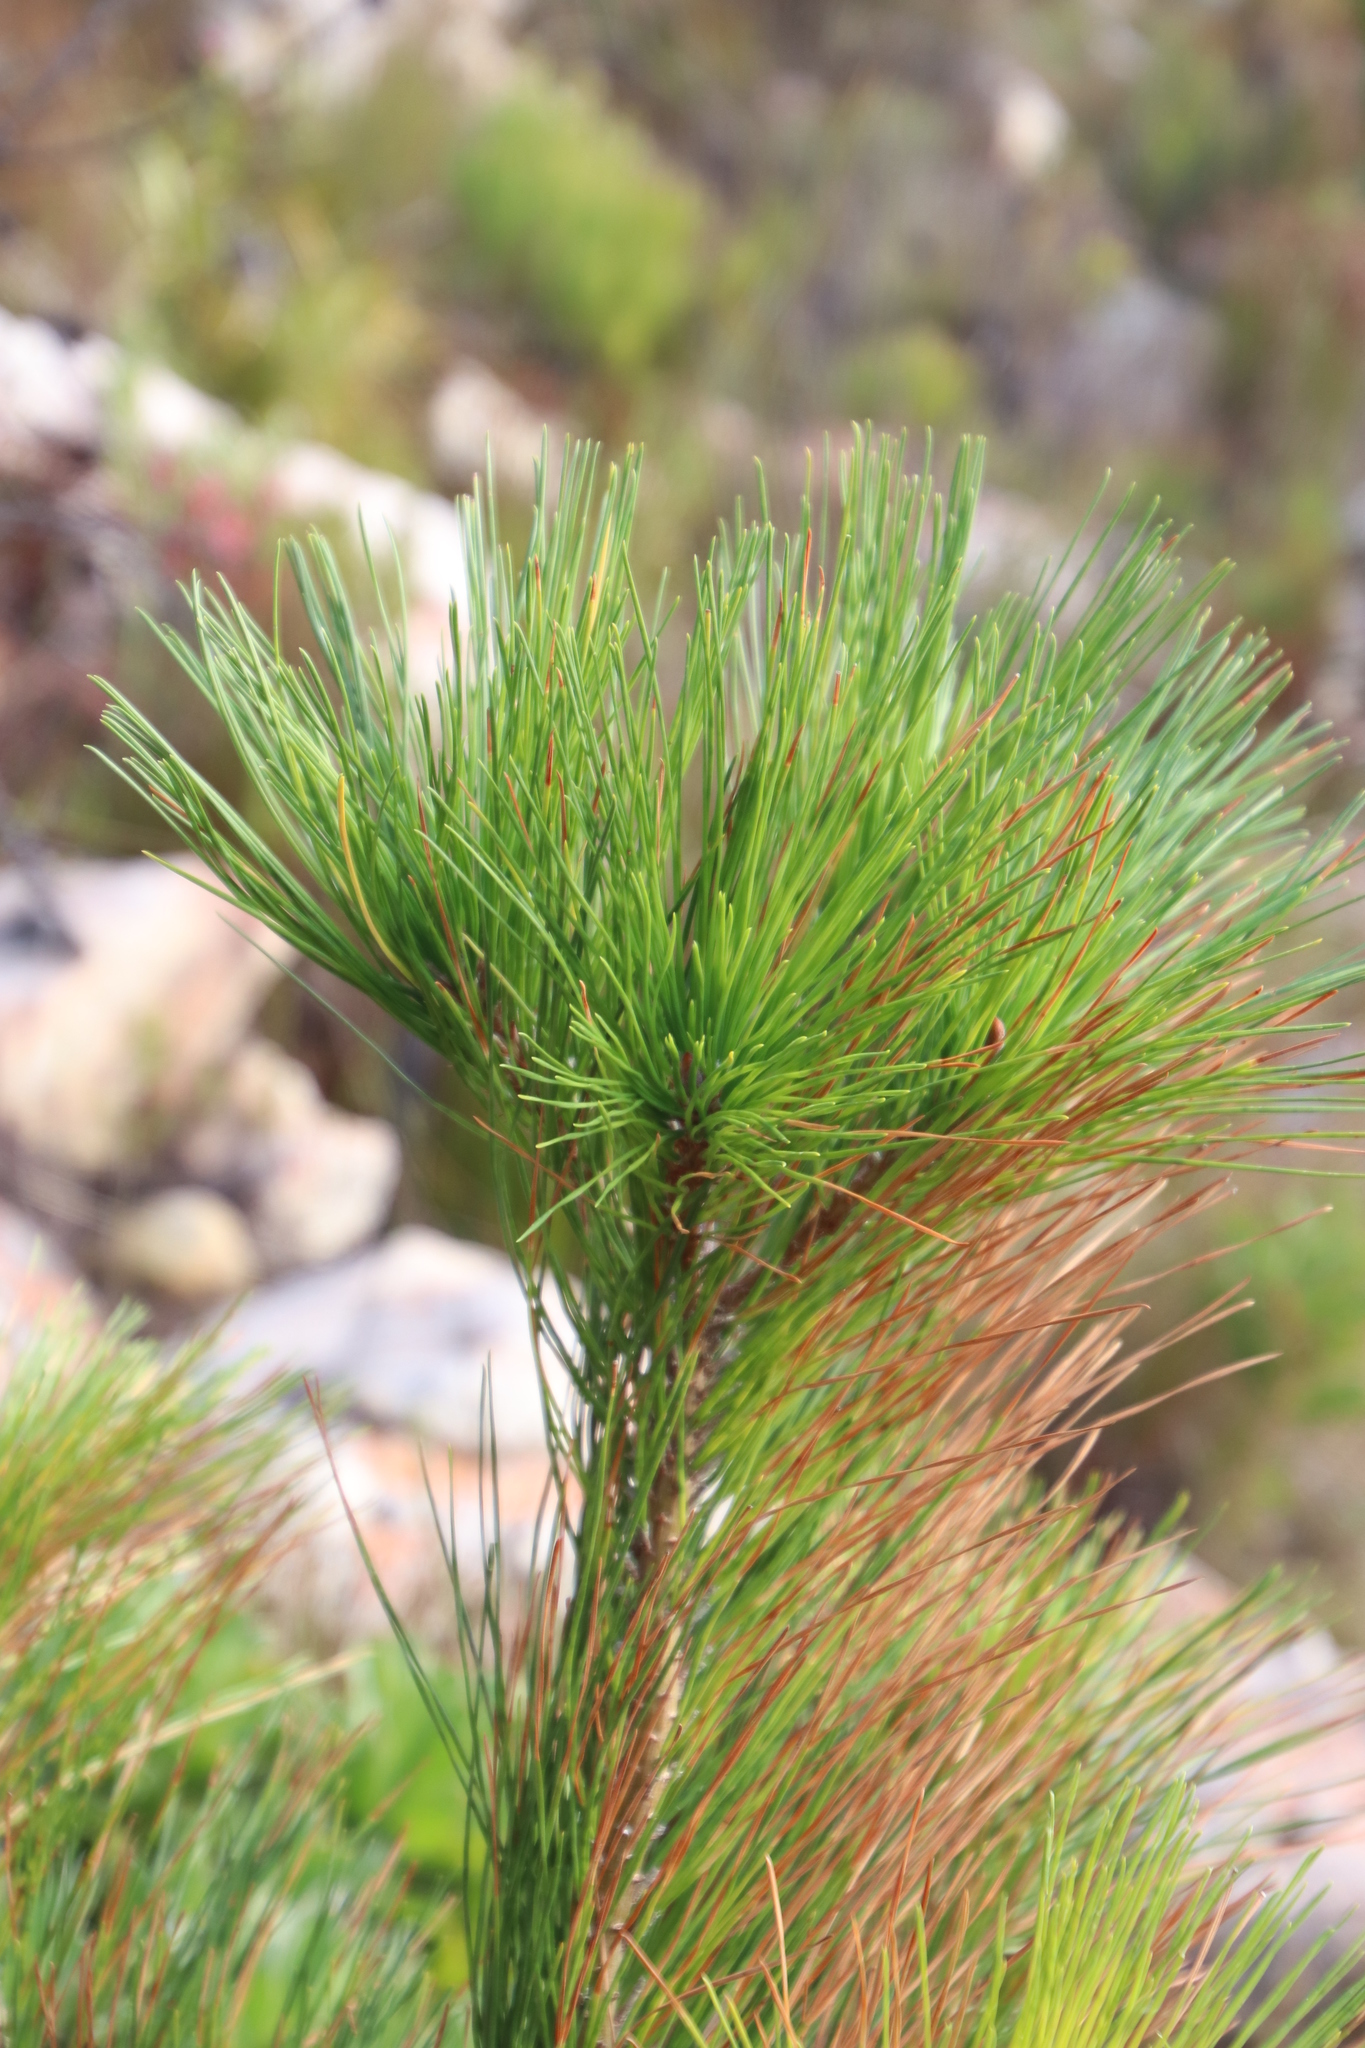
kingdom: Plantae
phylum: Tracheophyta
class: Pinopsida
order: Pinales
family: Pinaceae
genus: Pinus
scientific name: Pinus radiata
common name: Monterey pine
